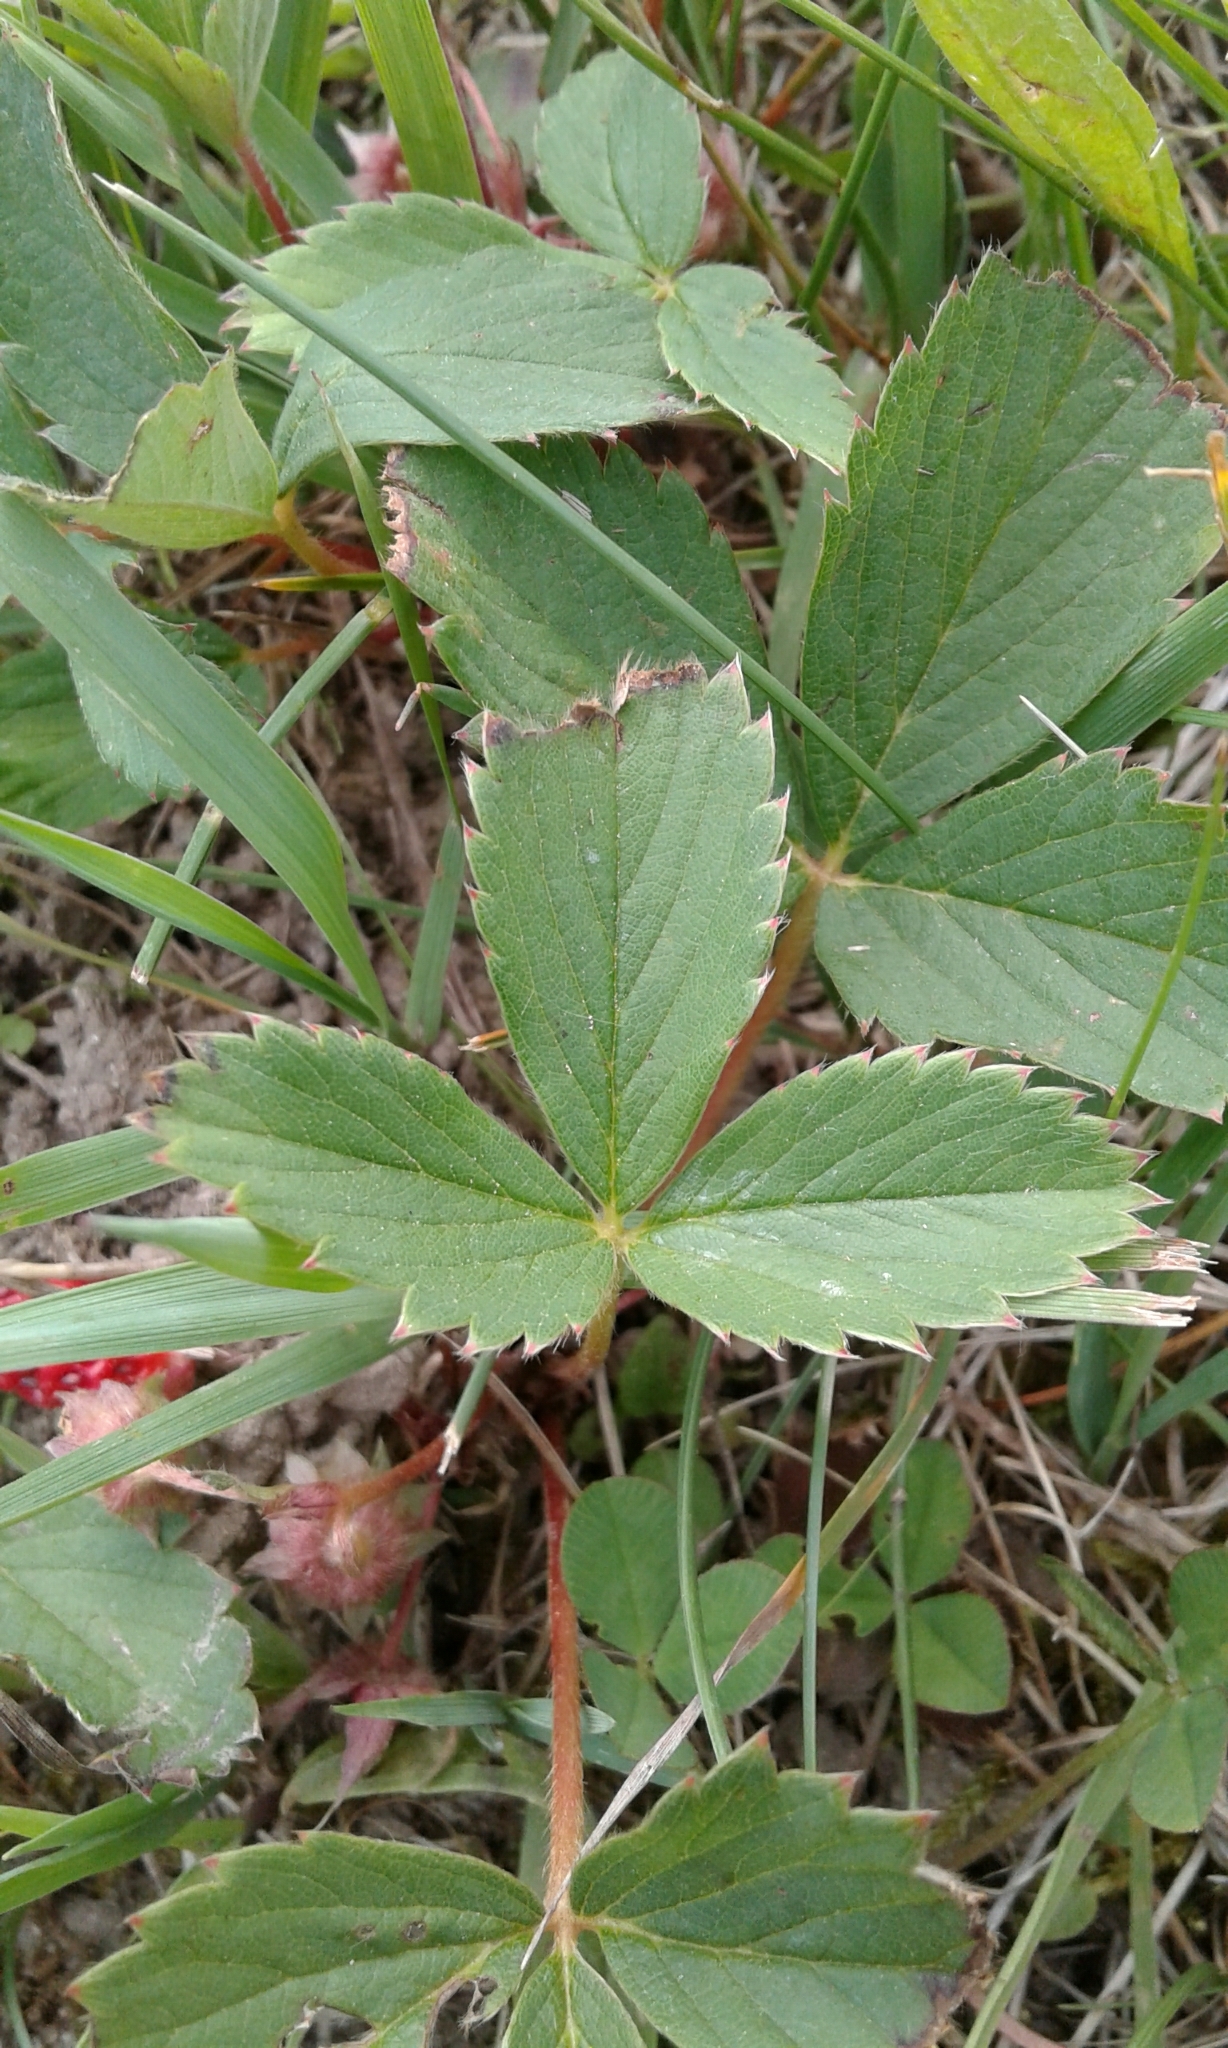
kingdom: Plantae
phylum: Tracheophyta
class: Magnoliopsida
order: Rosales
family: Rosaceae
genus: Fragaria
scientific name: Fragaria virginiana
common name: Thickleaved wild strawberry
